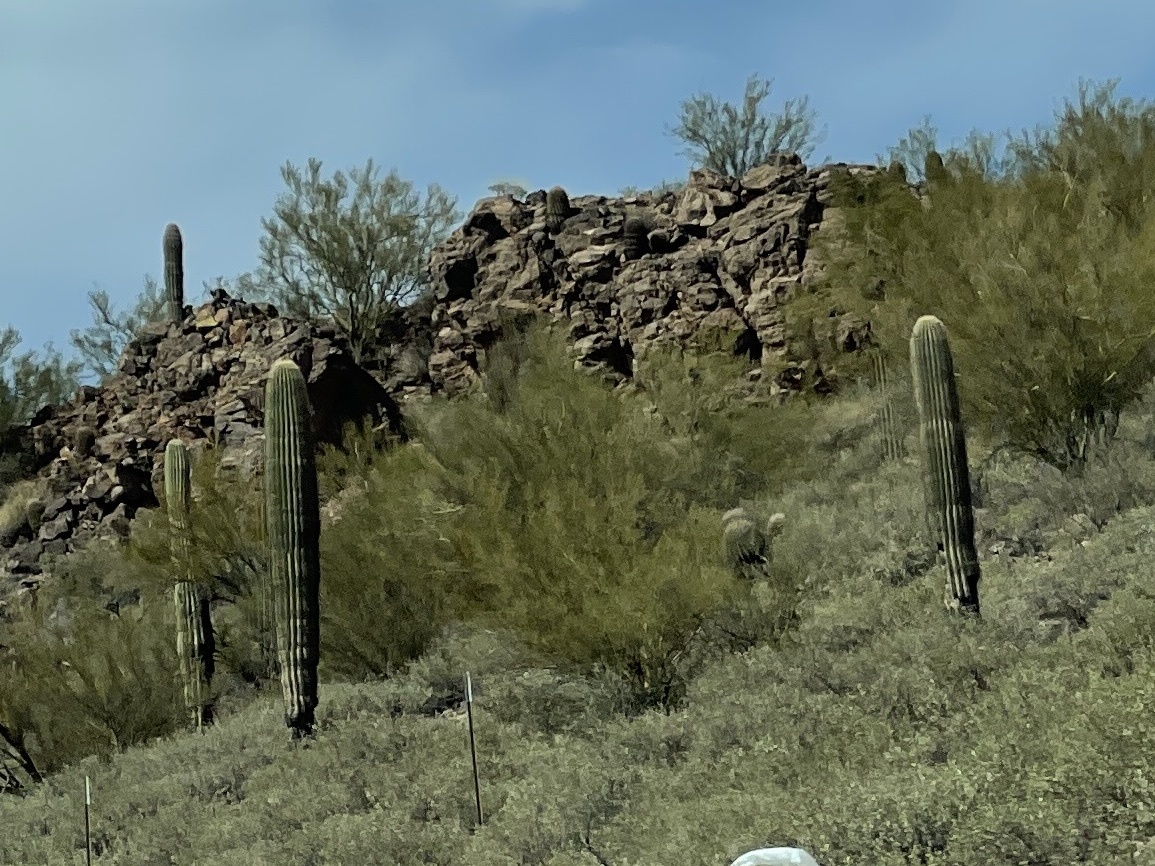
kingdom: Plantae
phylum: Tracheophyta
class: Magnoliopsida
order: Caryophyllales
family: Cactaceae
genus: Carnegiea
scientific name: Carnegiea gigantea
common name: Saguaro
